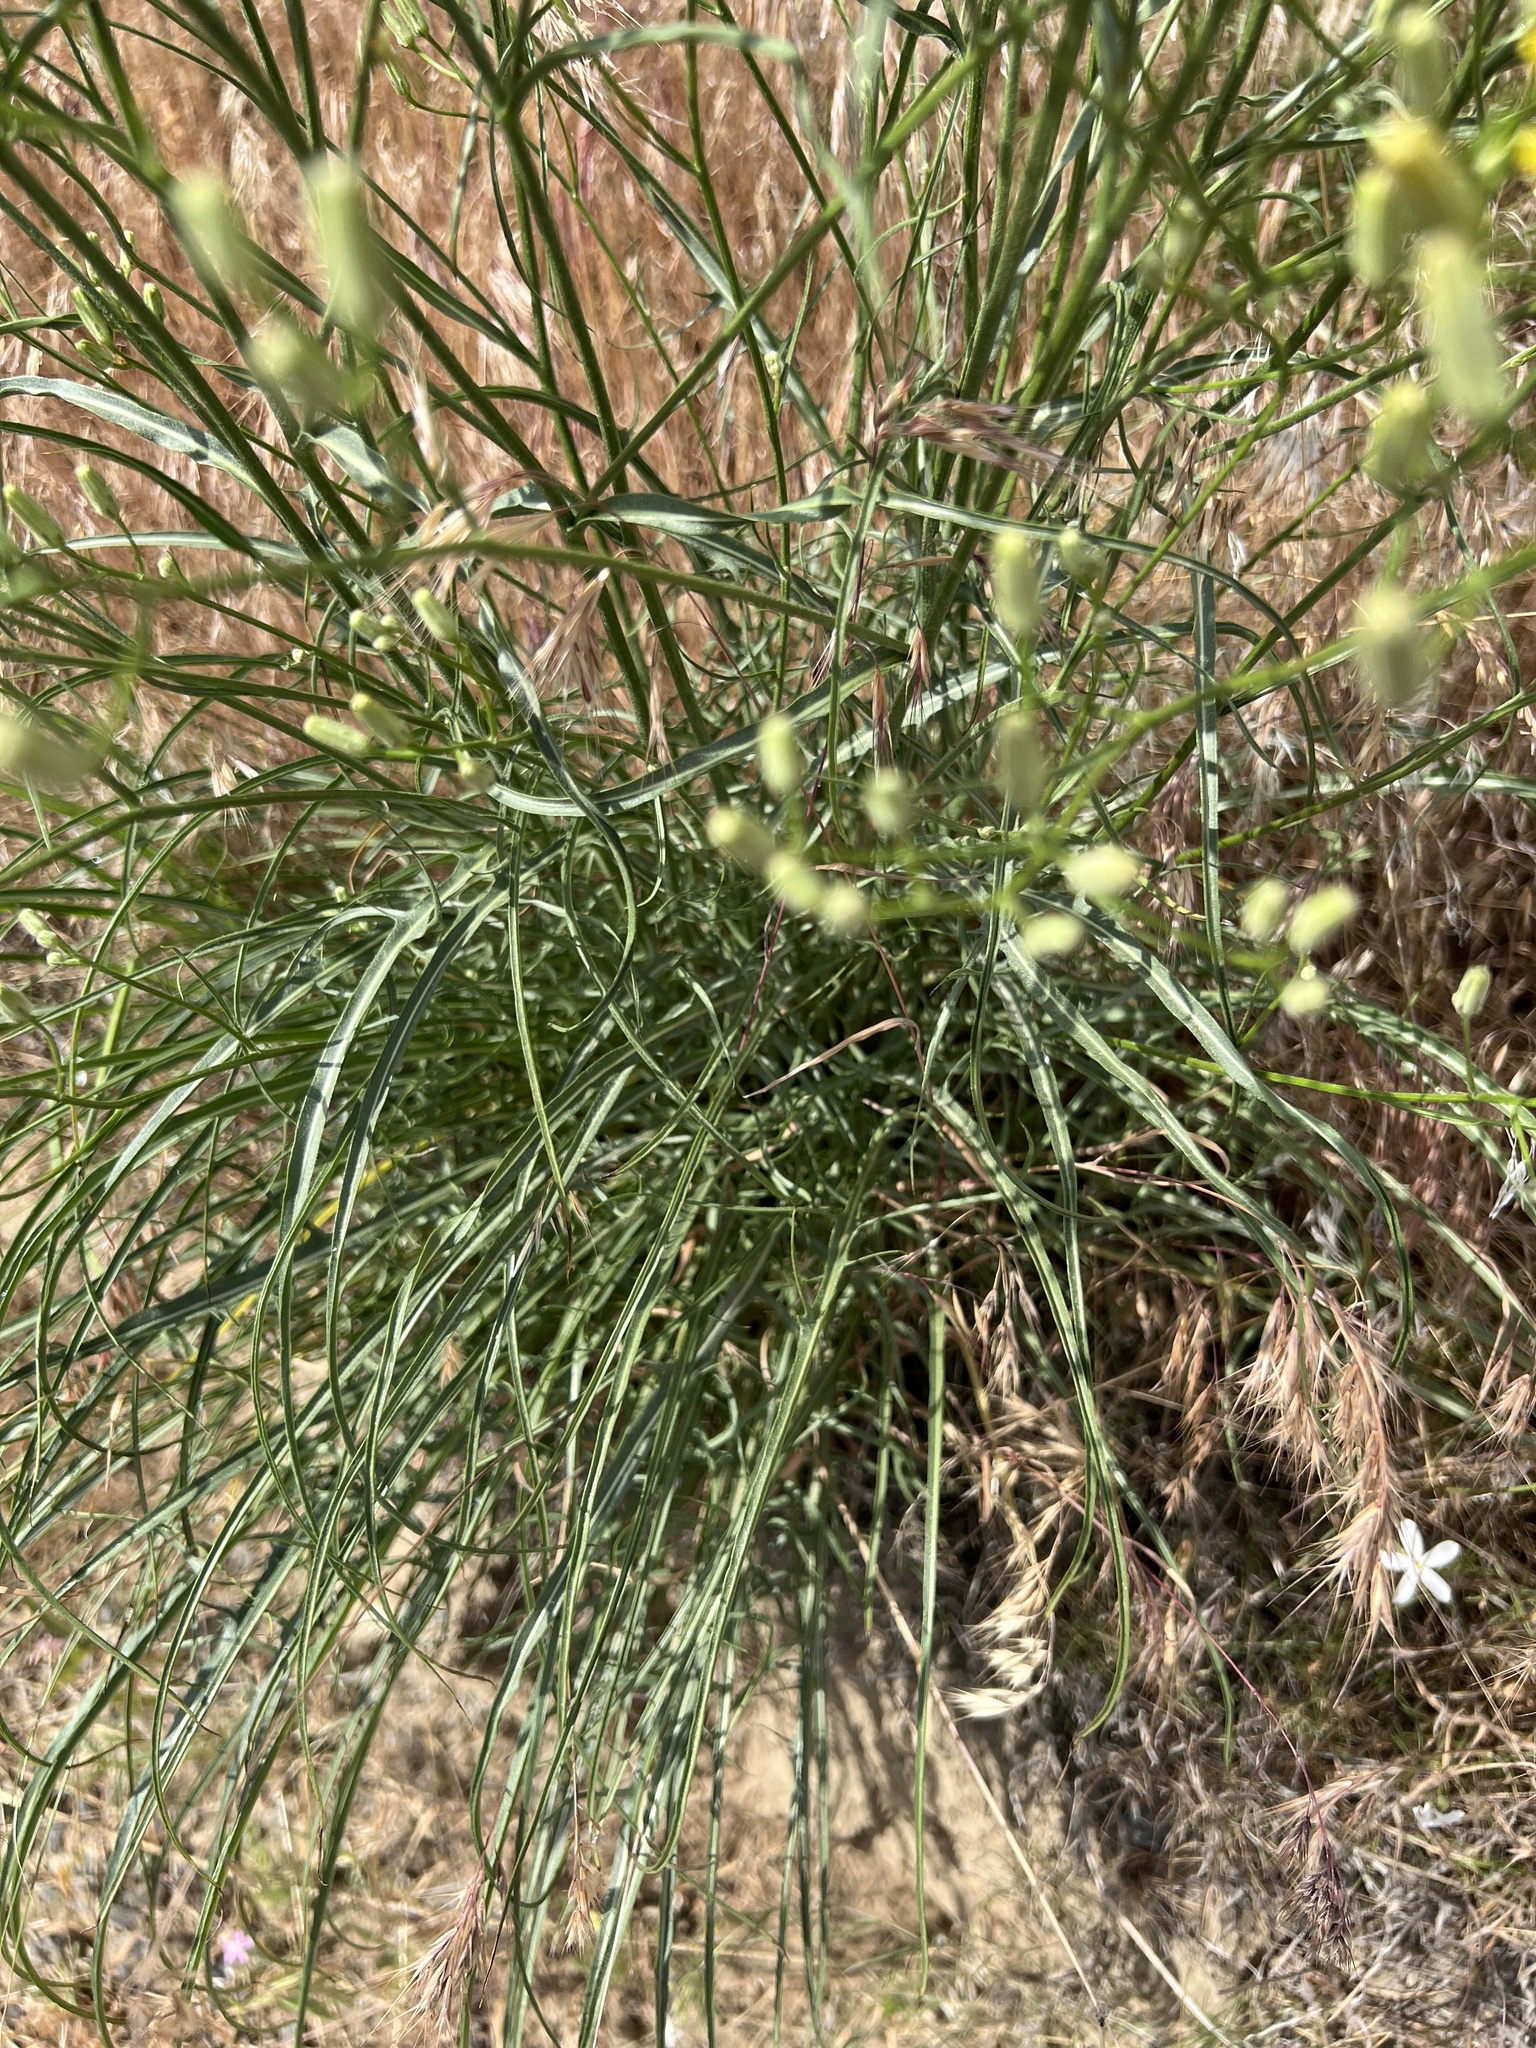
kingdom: Plantae
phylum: Tracheophyta
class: Magnoliopsida
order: Asterales
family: Asteraceae
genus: Crepis
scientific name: Crepis atribarba
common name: Dark hawk's-beard
